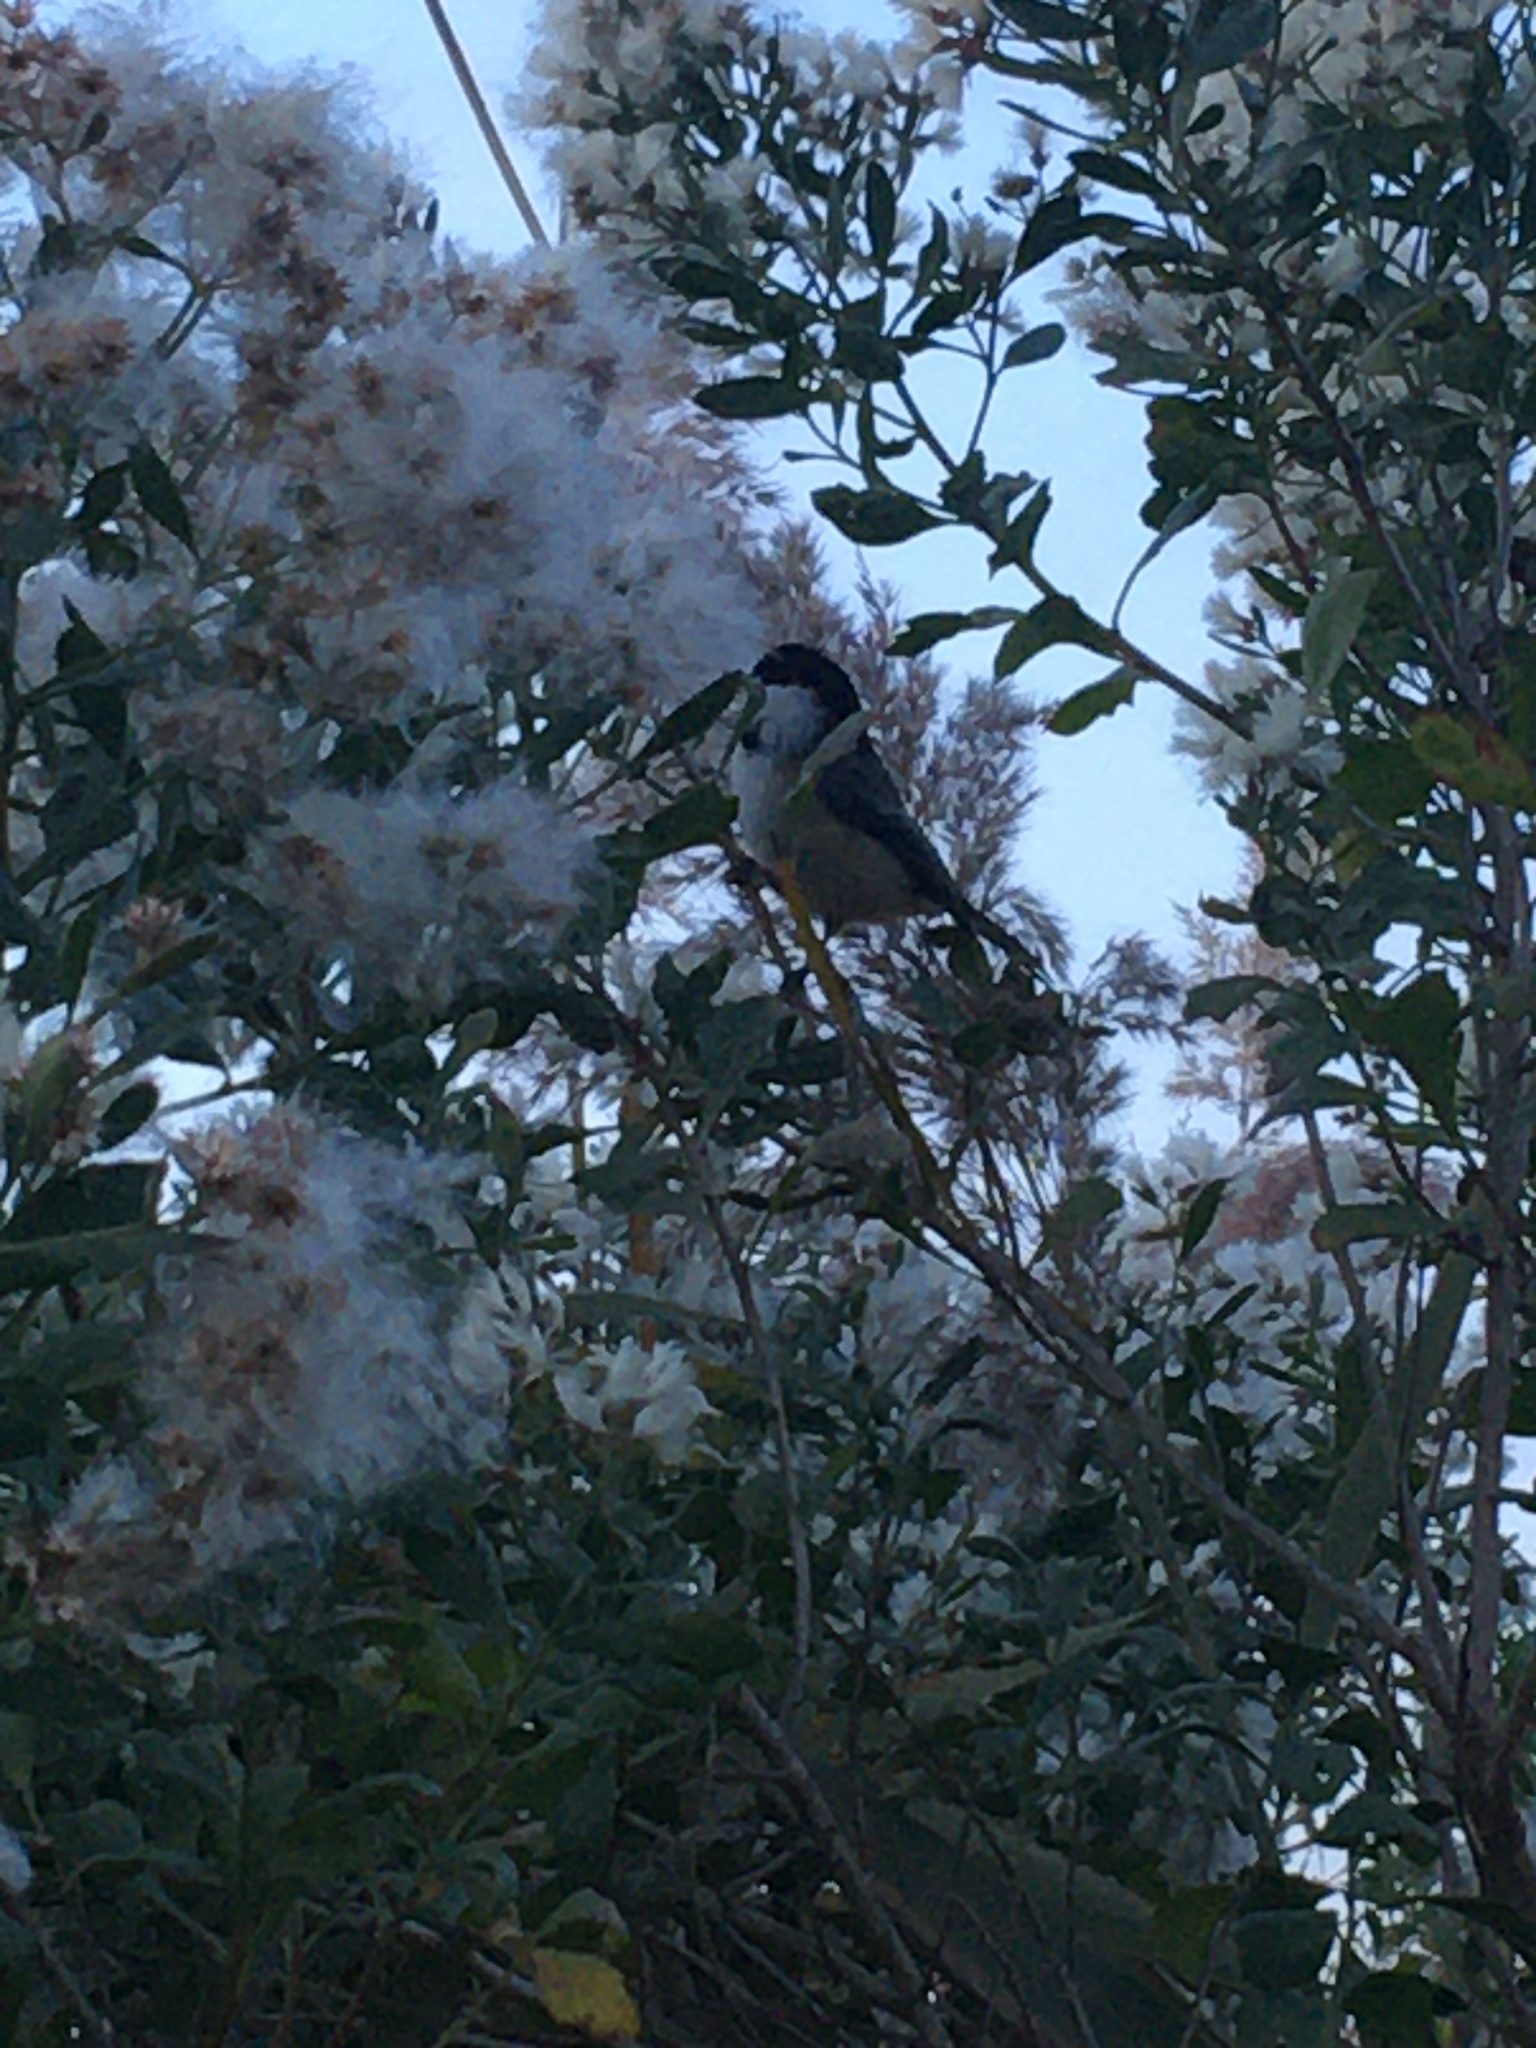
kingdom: Animalia
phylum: Chordata
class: Aves
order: Passeriformes
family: Paridae
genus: Poecile
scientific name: Poecile atricapillus
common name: Black-capped chickadee
